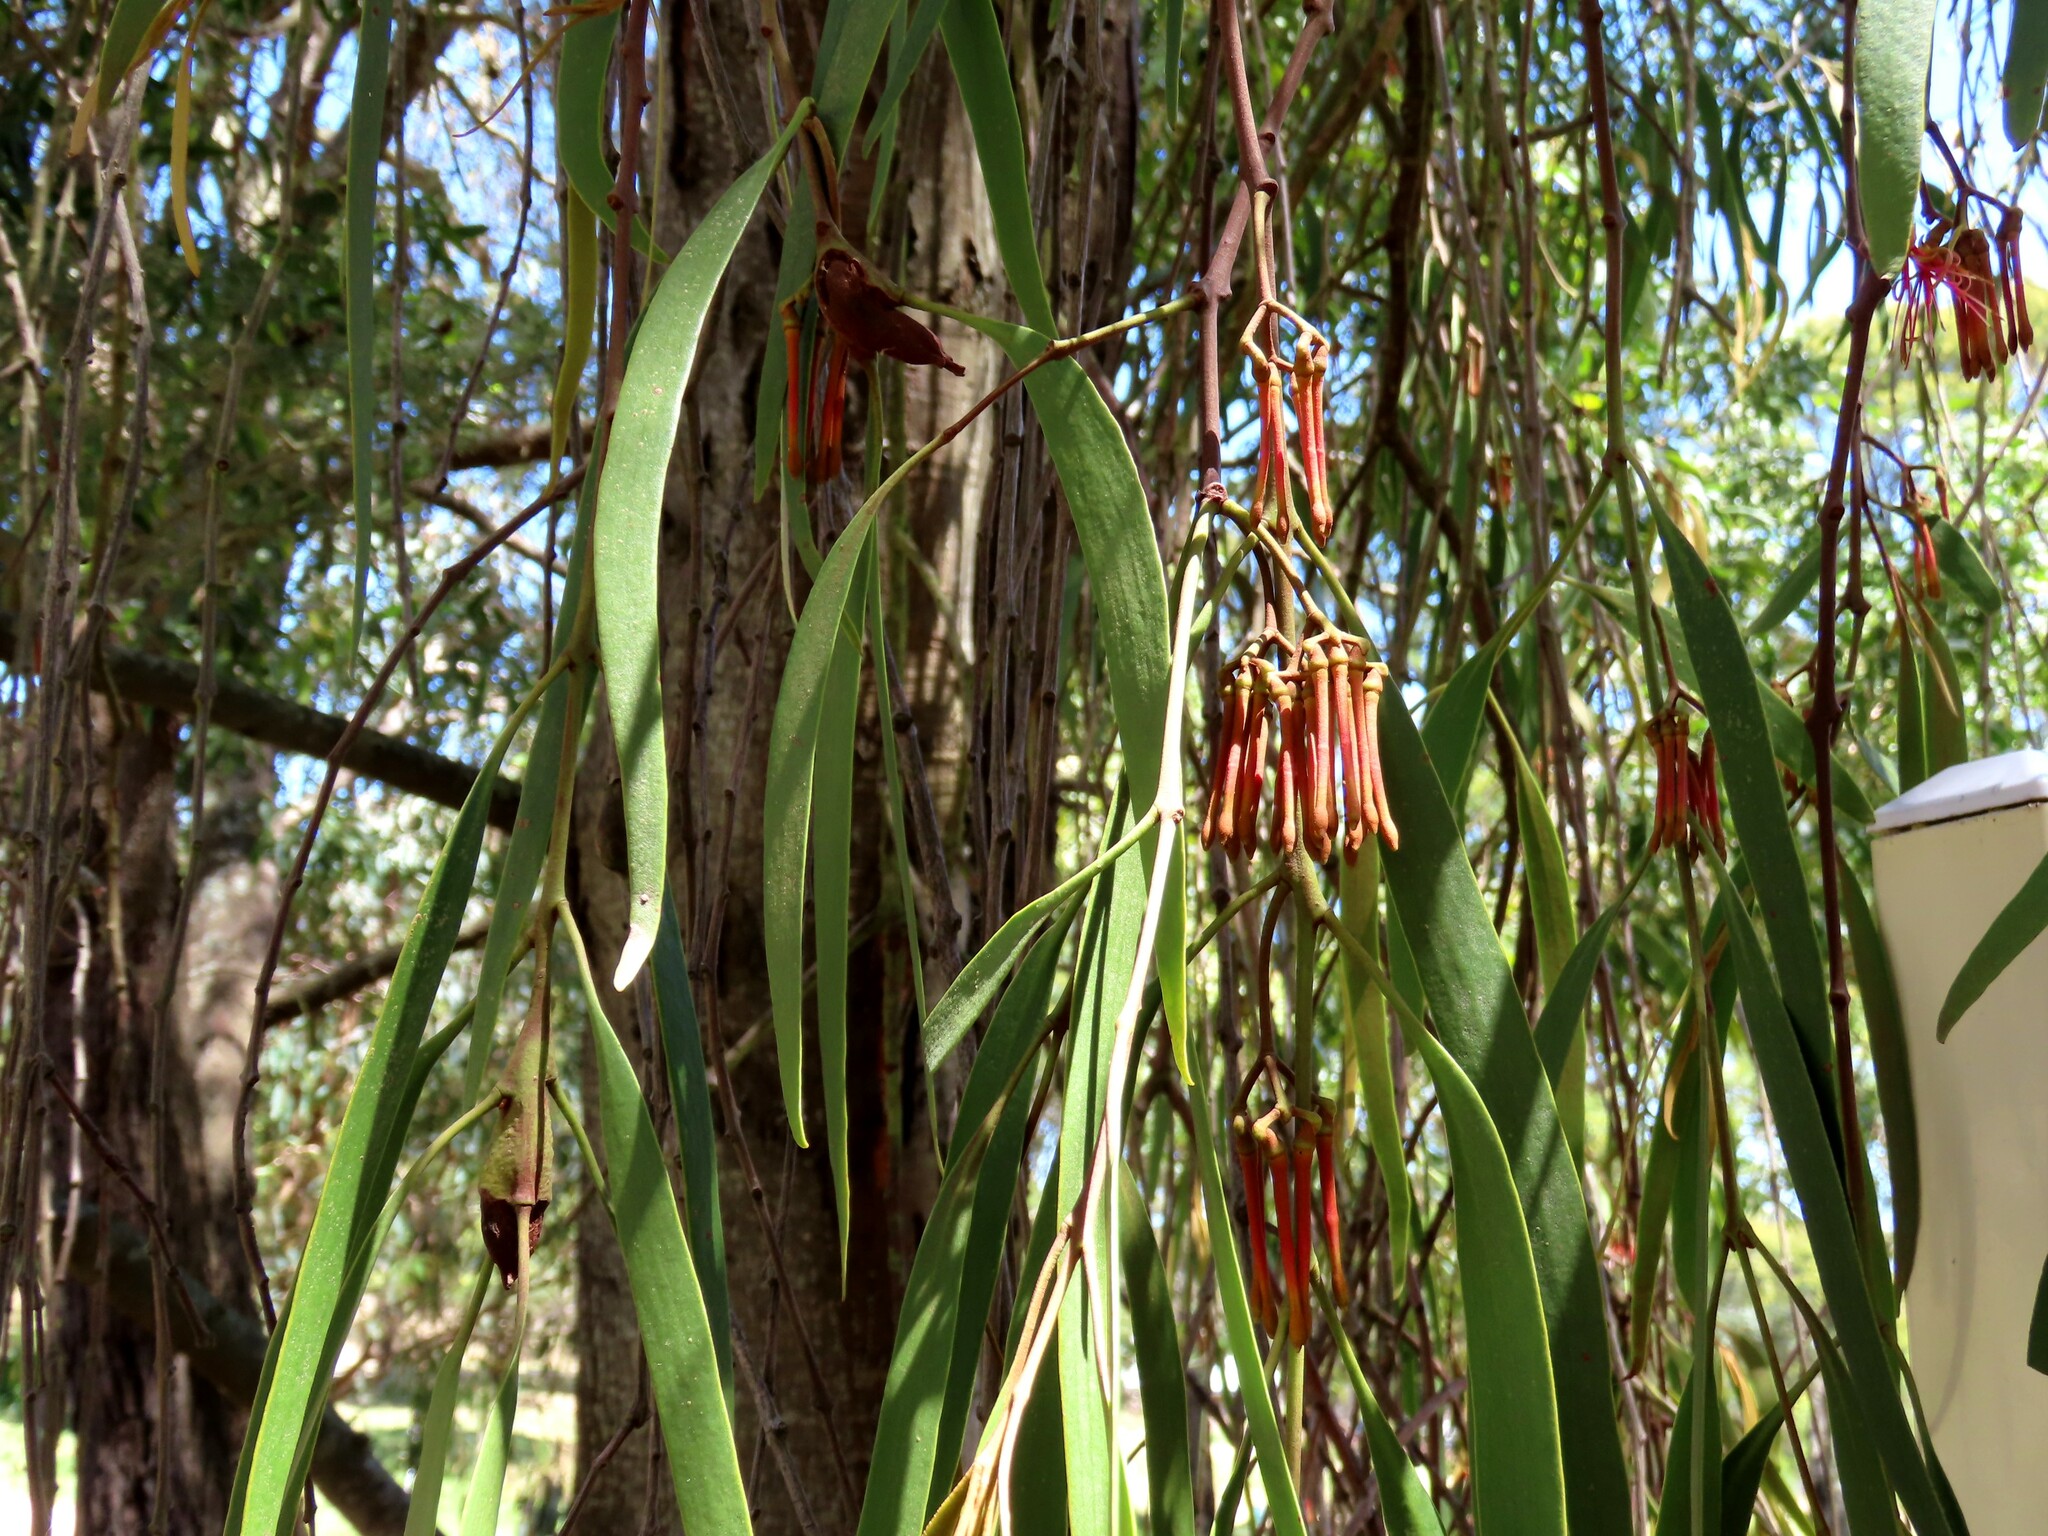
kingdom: Plantae
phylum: Tracheophyta
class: Magnoliopsida
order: Santalales
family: Loranthaceae
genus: Amyema
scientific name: Amyema pendula
